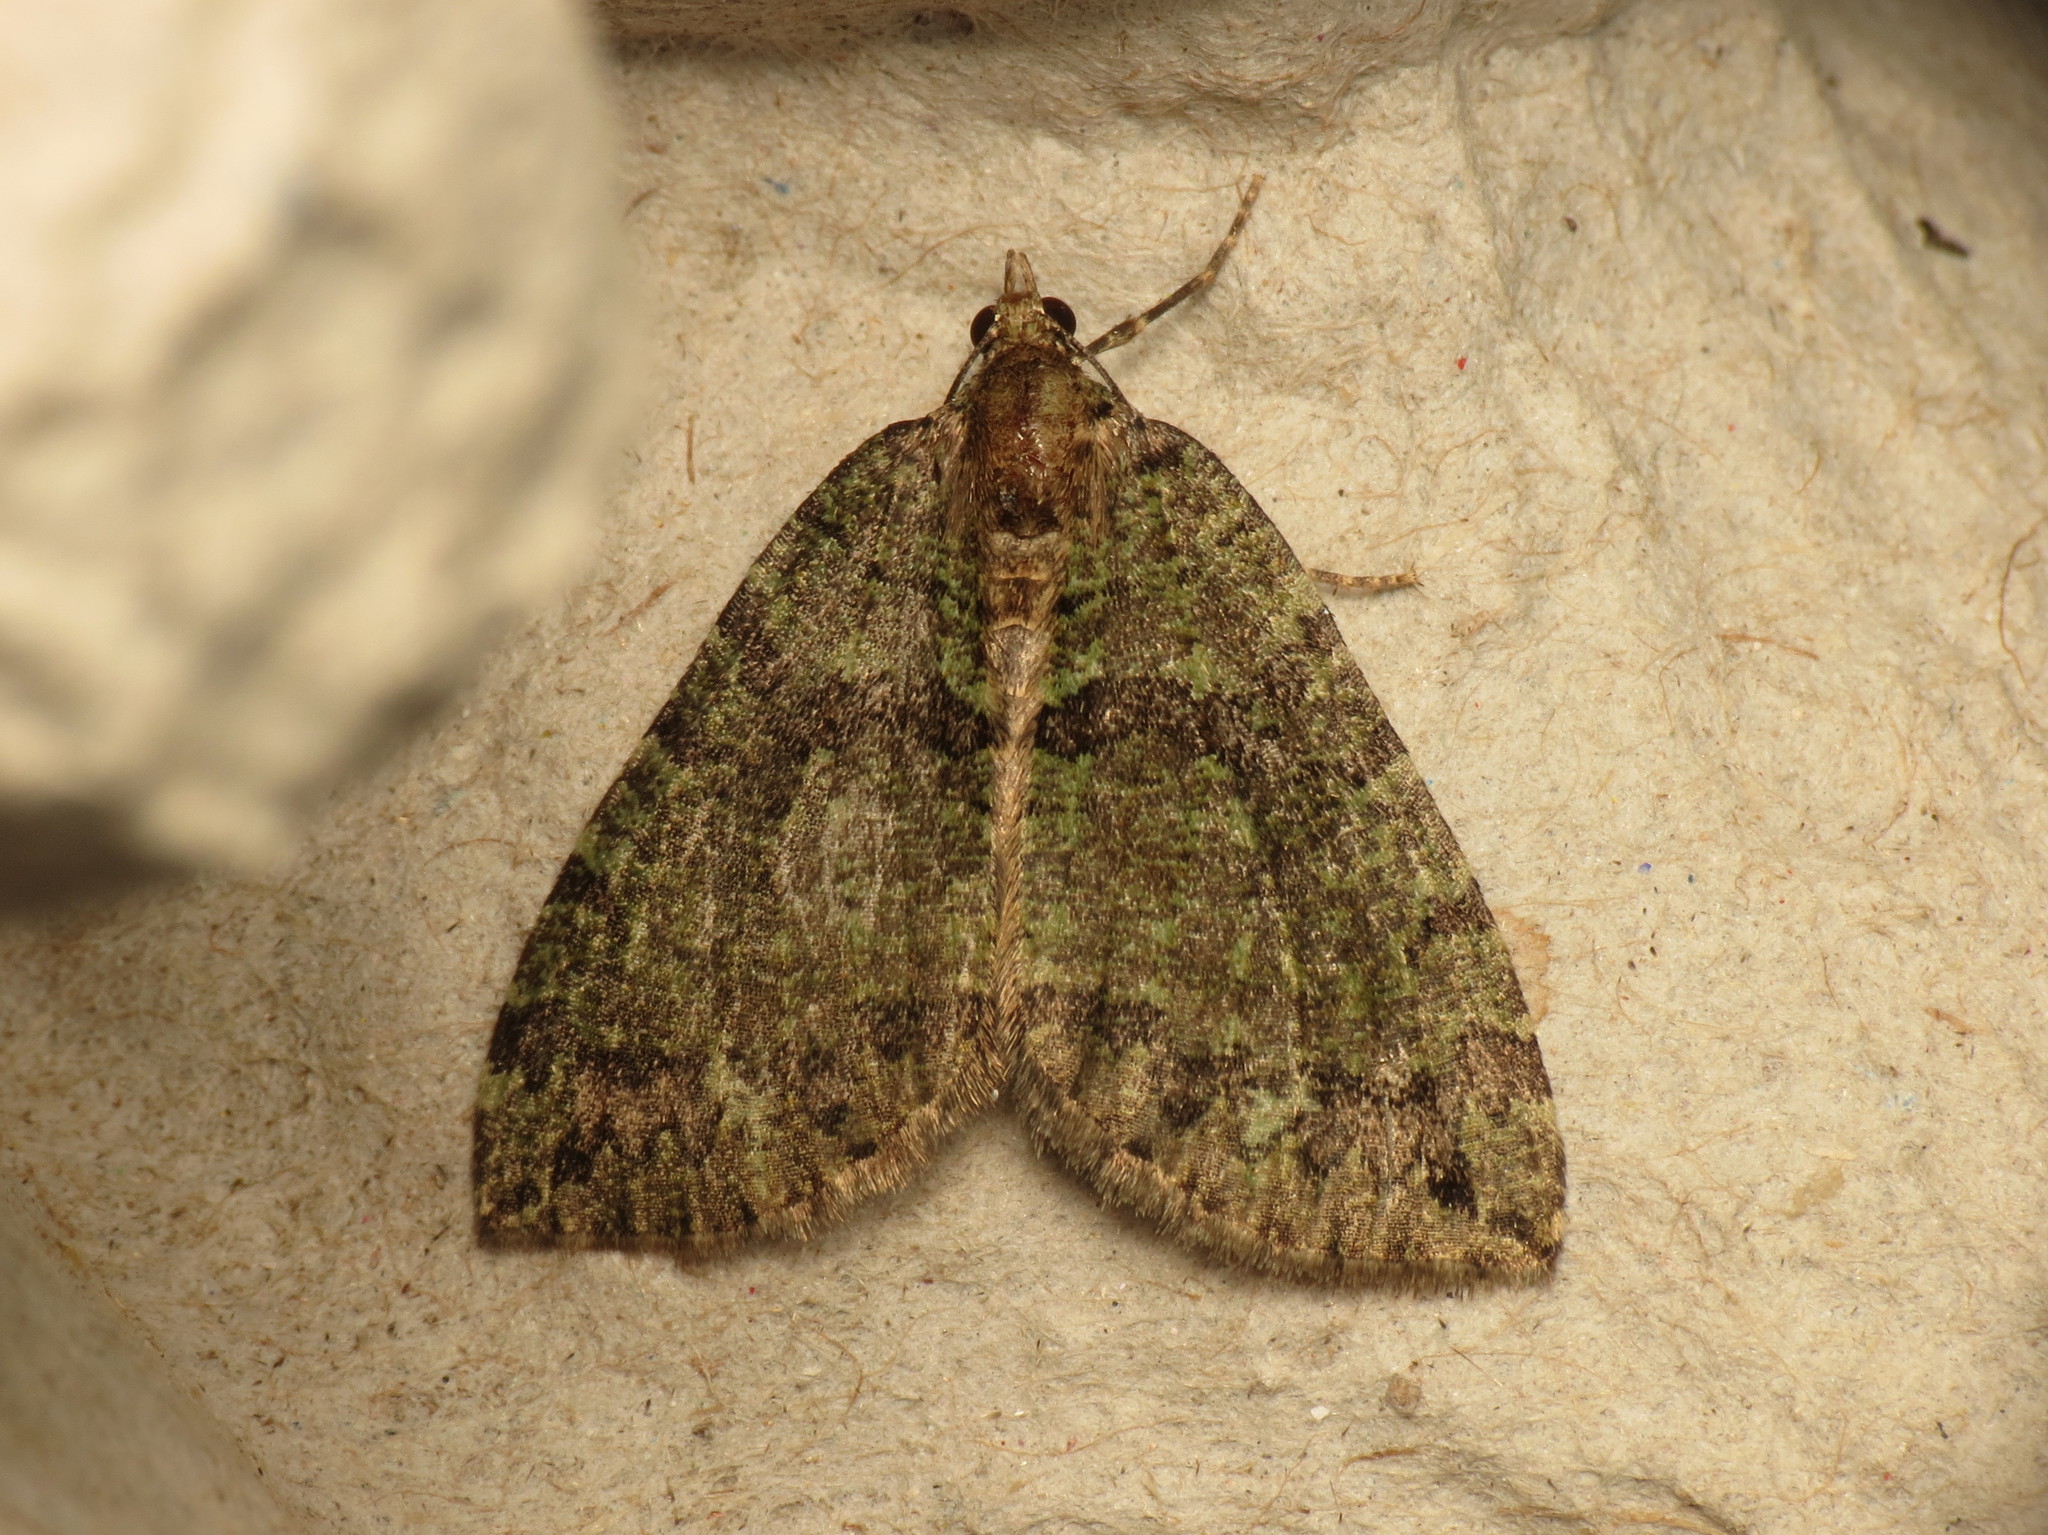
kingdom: Animalia
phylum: Arthropoda
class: Insecta
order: Lepidoptera
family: Geometridae
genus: Hydriomena
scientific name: Hydriomena furcata
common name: July highflyer
